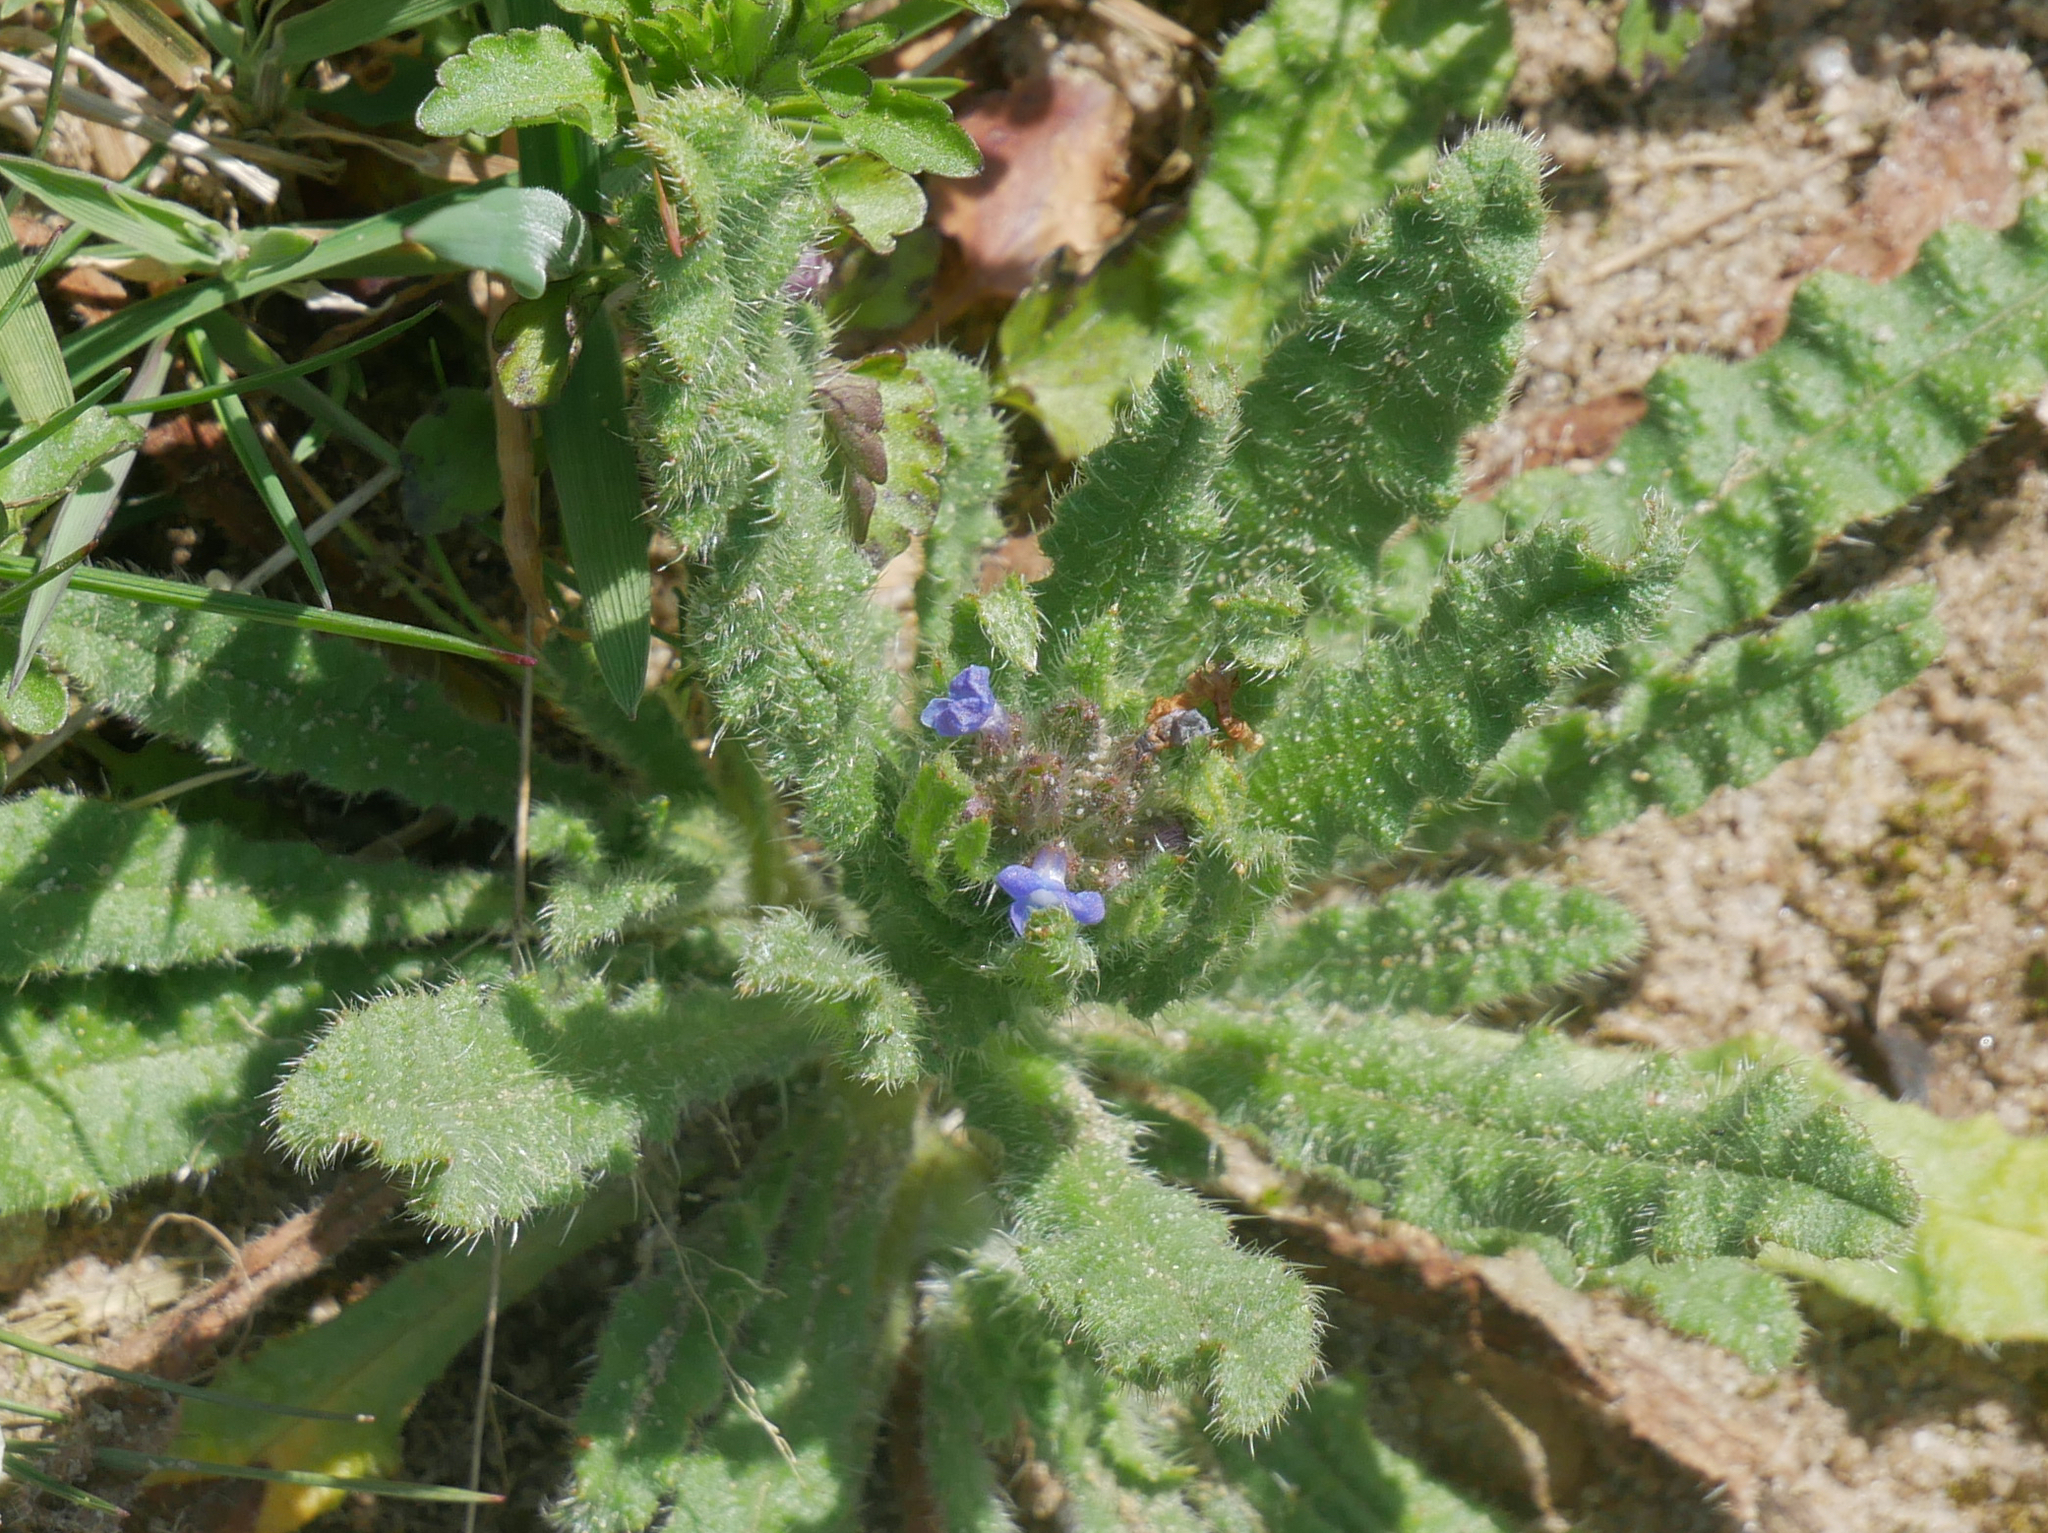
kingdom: Plantae
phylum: Tracheophyta
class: Magnoliopsida
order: Boraginales
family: Boraginaceae
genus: Lycopsis
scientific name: Lycopsis arvensis
